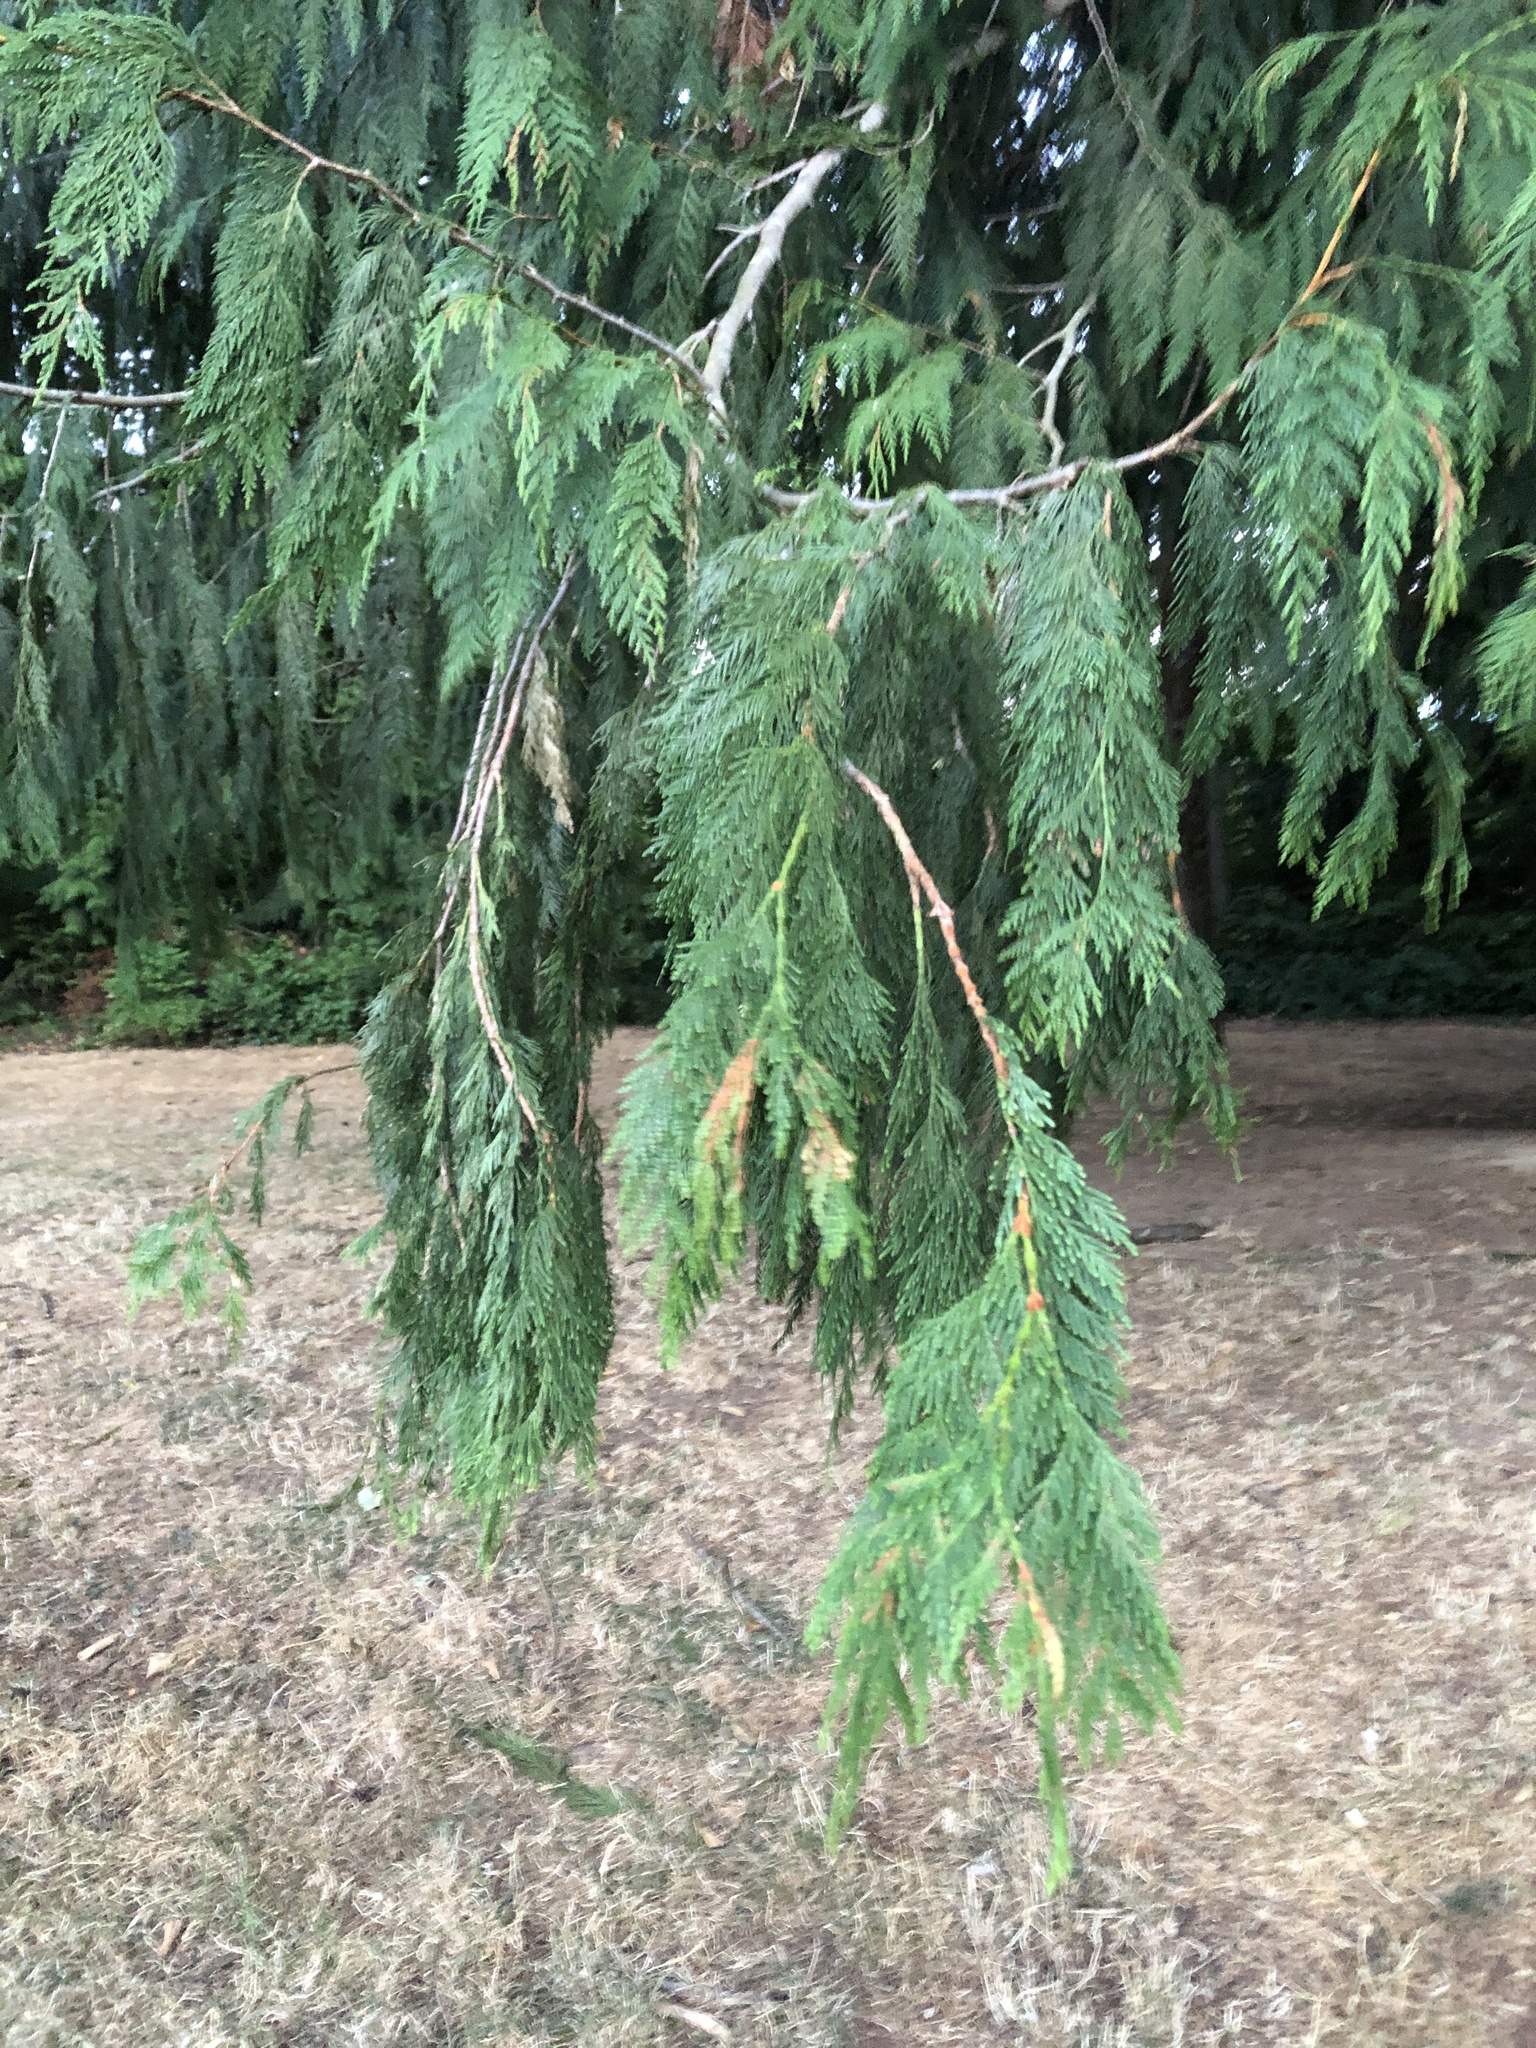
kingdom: Plantae
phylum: Tracheophyta
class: Pinopsida
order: Pinales
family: Cupressaceae
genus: Thuja
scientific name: Thuja plicata
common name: Western red-cedar
